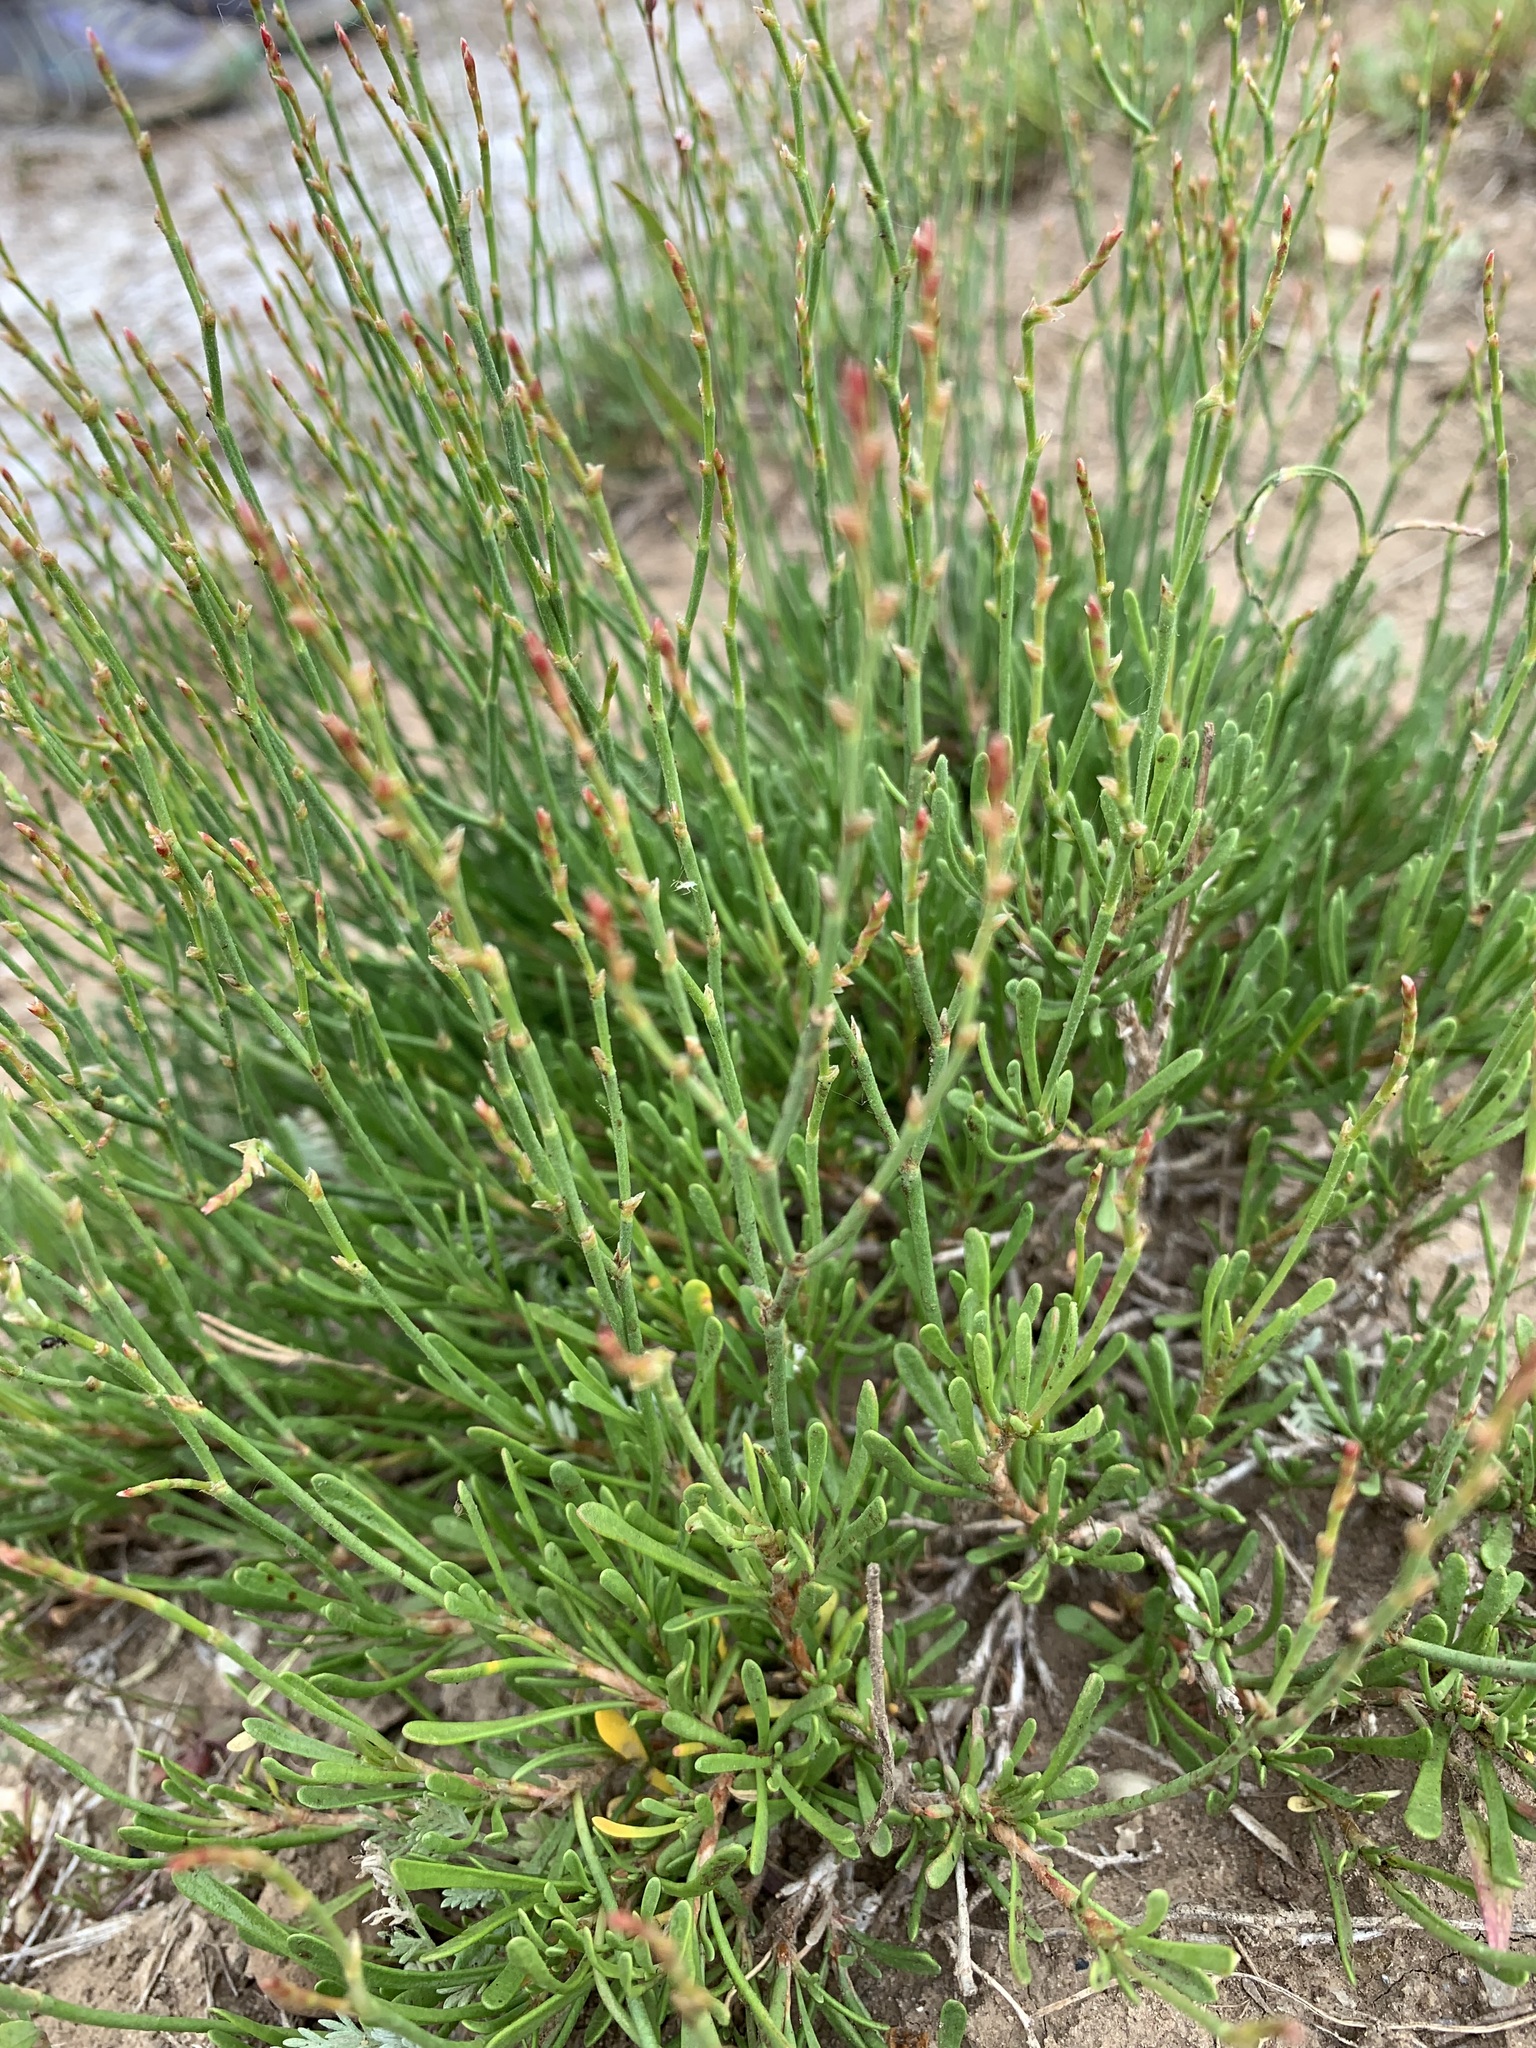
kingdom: Plantae
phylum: Tracheophyta
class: Magnoliopsida
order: Caryophyllales
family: Plumbaginaceae
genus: Limonium
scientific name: Limonium suffruticosum
